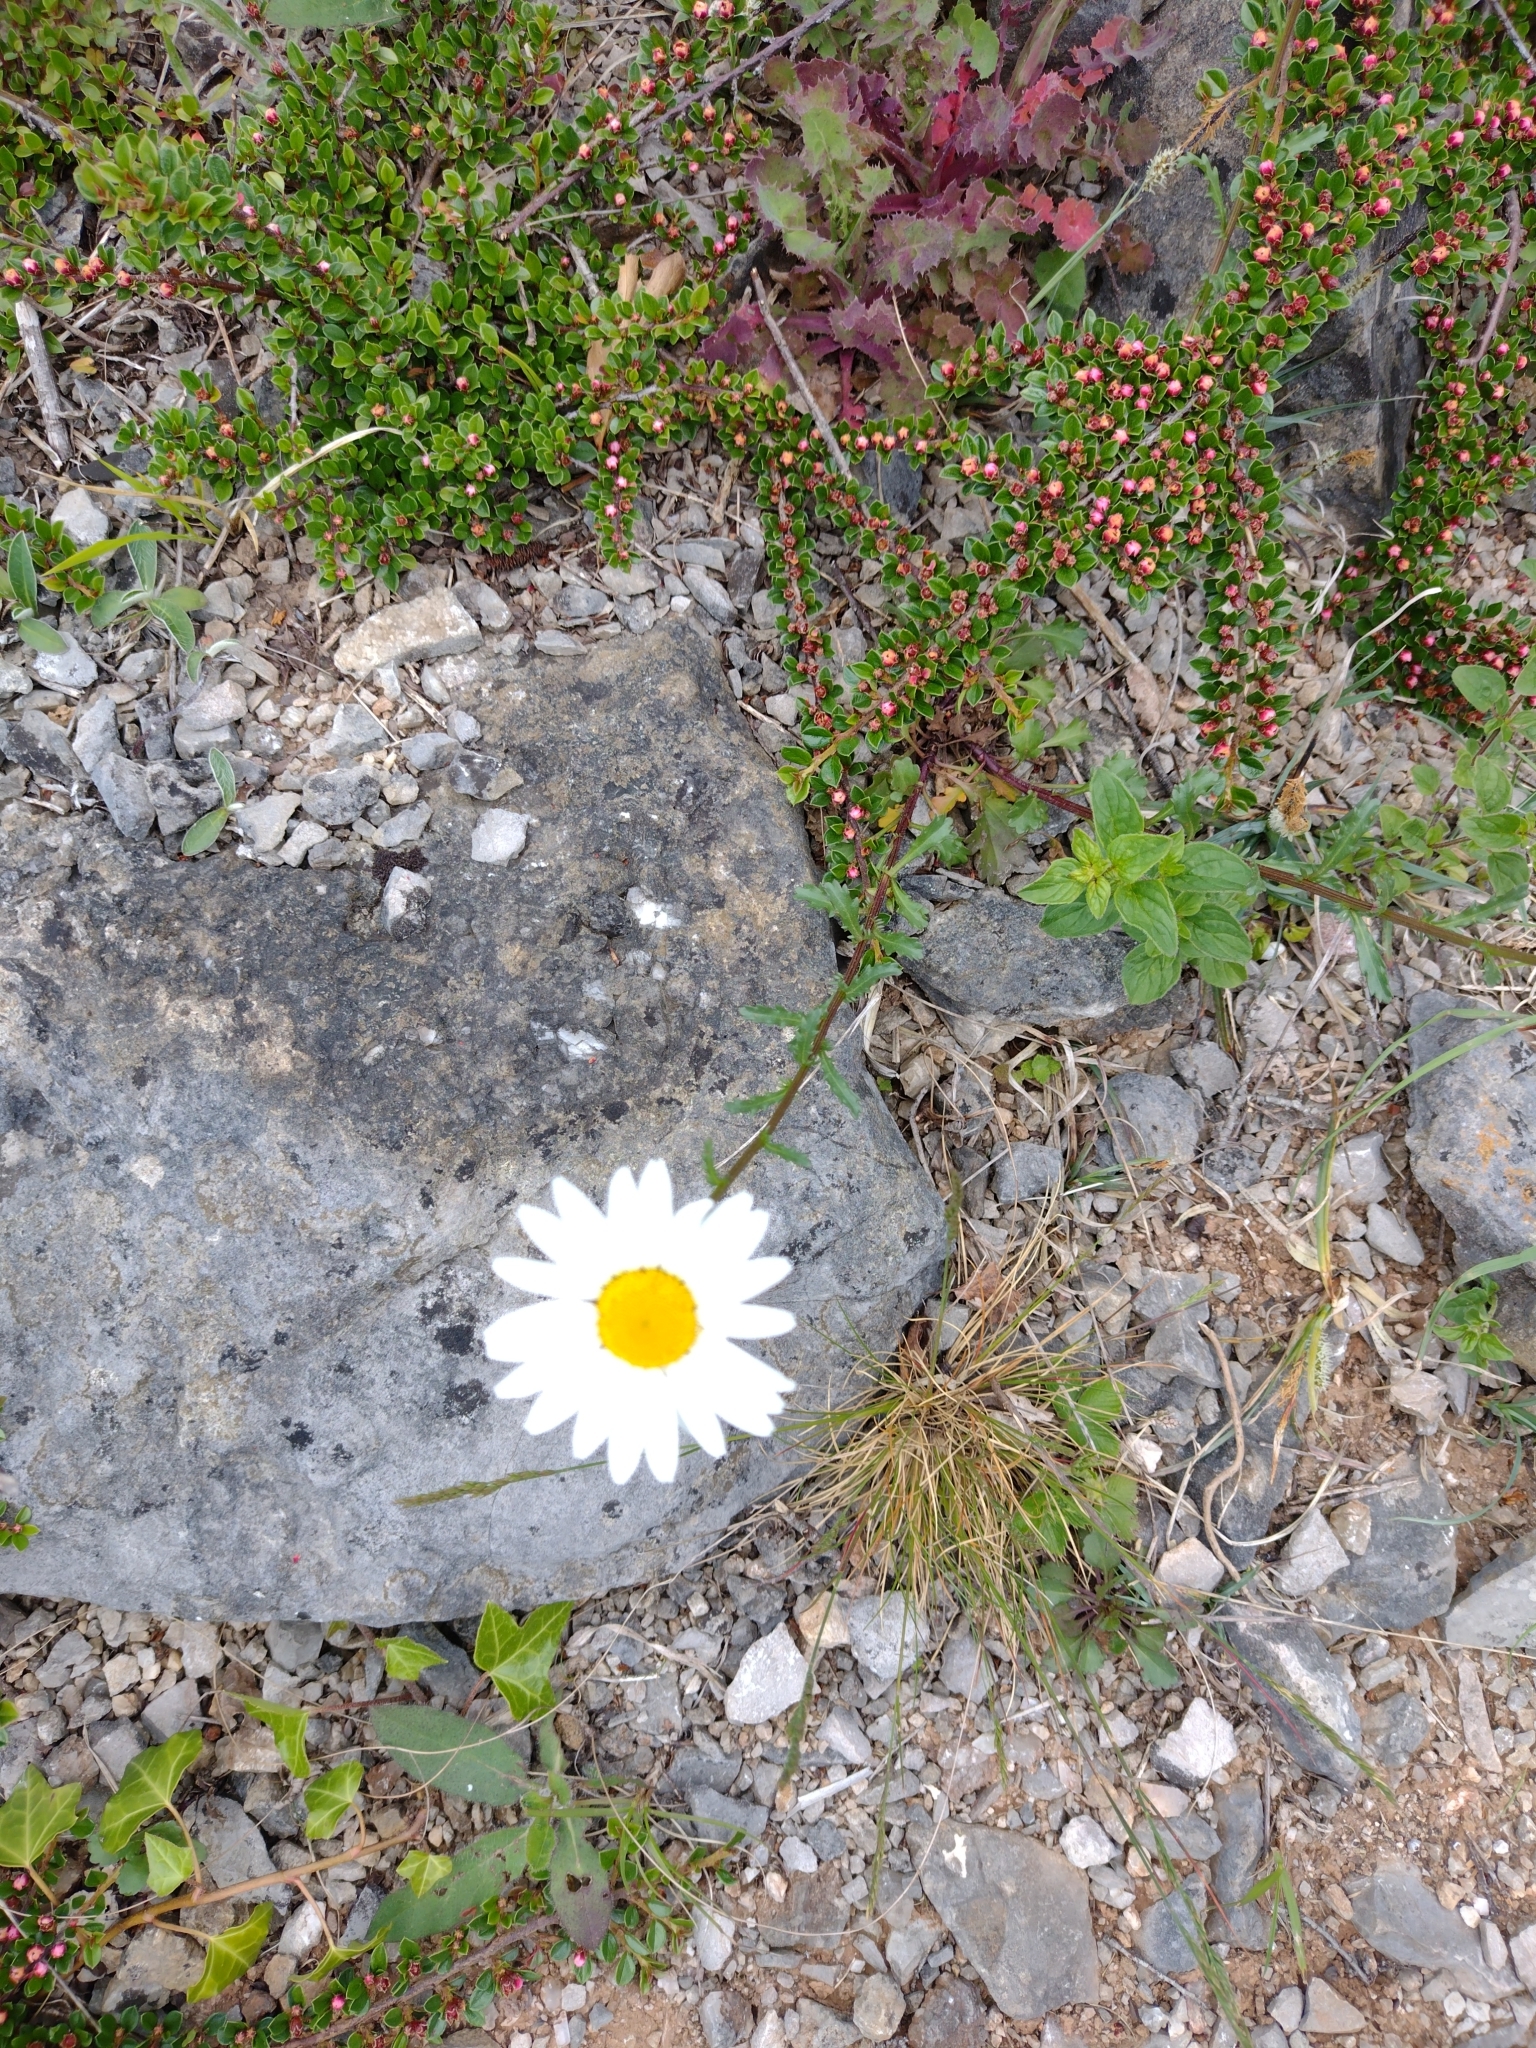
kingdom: Plantae
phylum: Tracheophyta
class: Magnoliopsida
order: Asterales
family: Asteraceae
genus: Leucanthemum
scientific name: Leucanthemum vulgare
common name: Oxeye daisy
